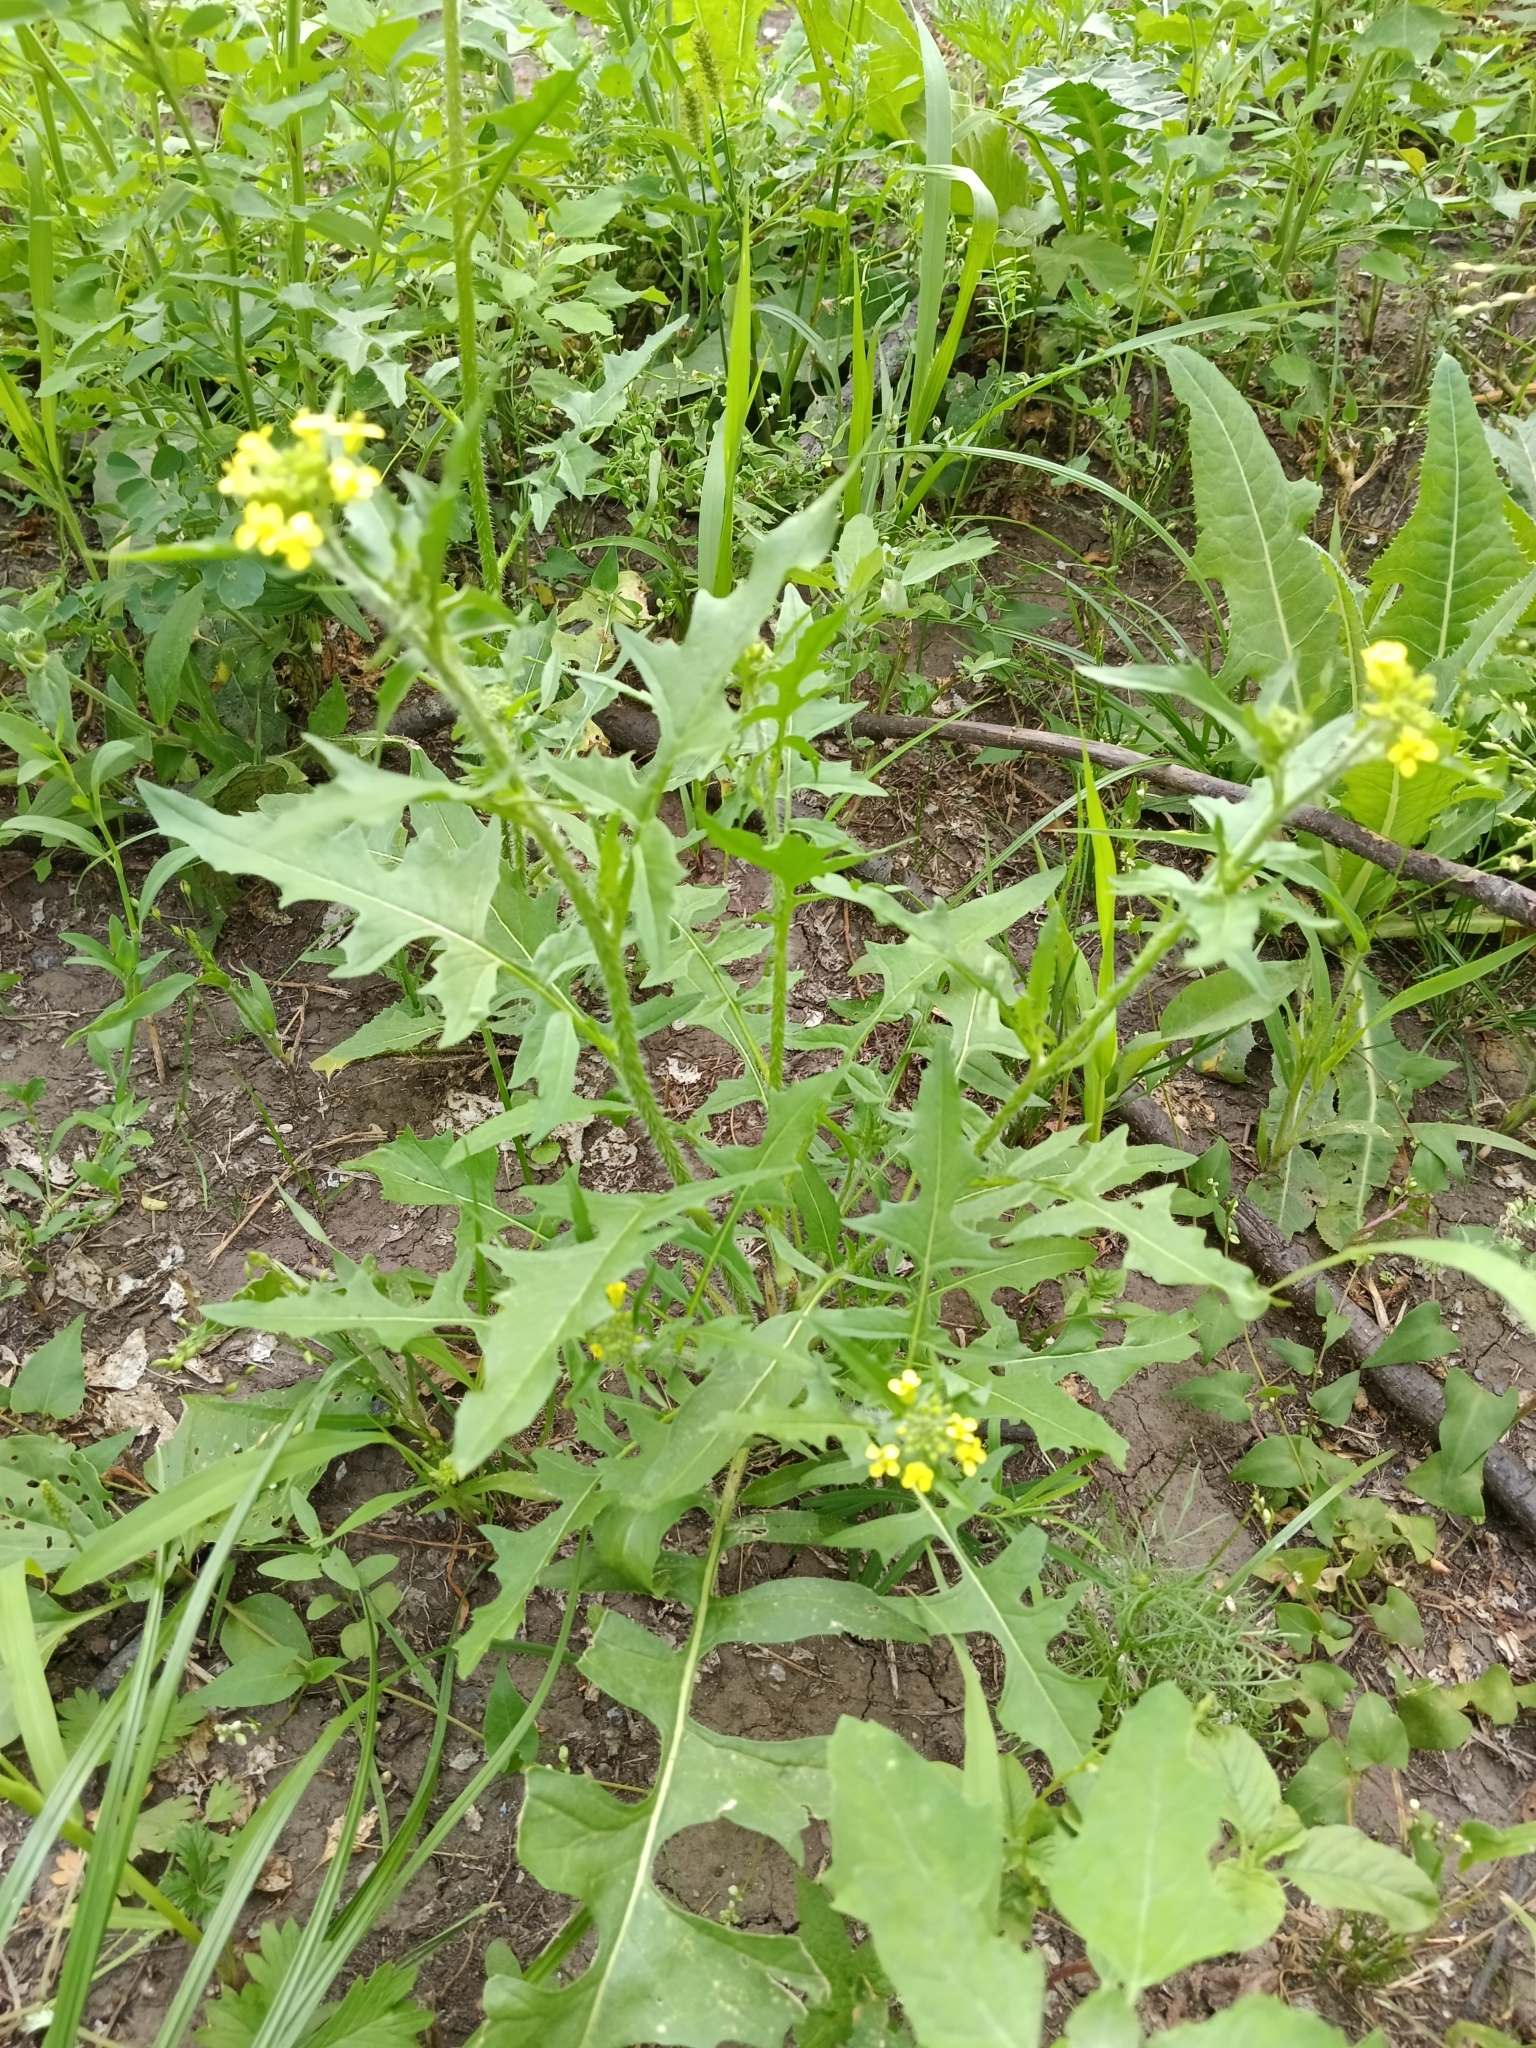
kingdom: Plantae
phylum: Tracheophyta
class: Magnoliopsida
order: Brassicales
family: Brassicaceae
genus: Sisymbrium
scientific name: Sisymbrium loeselii
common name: False london-rocket
